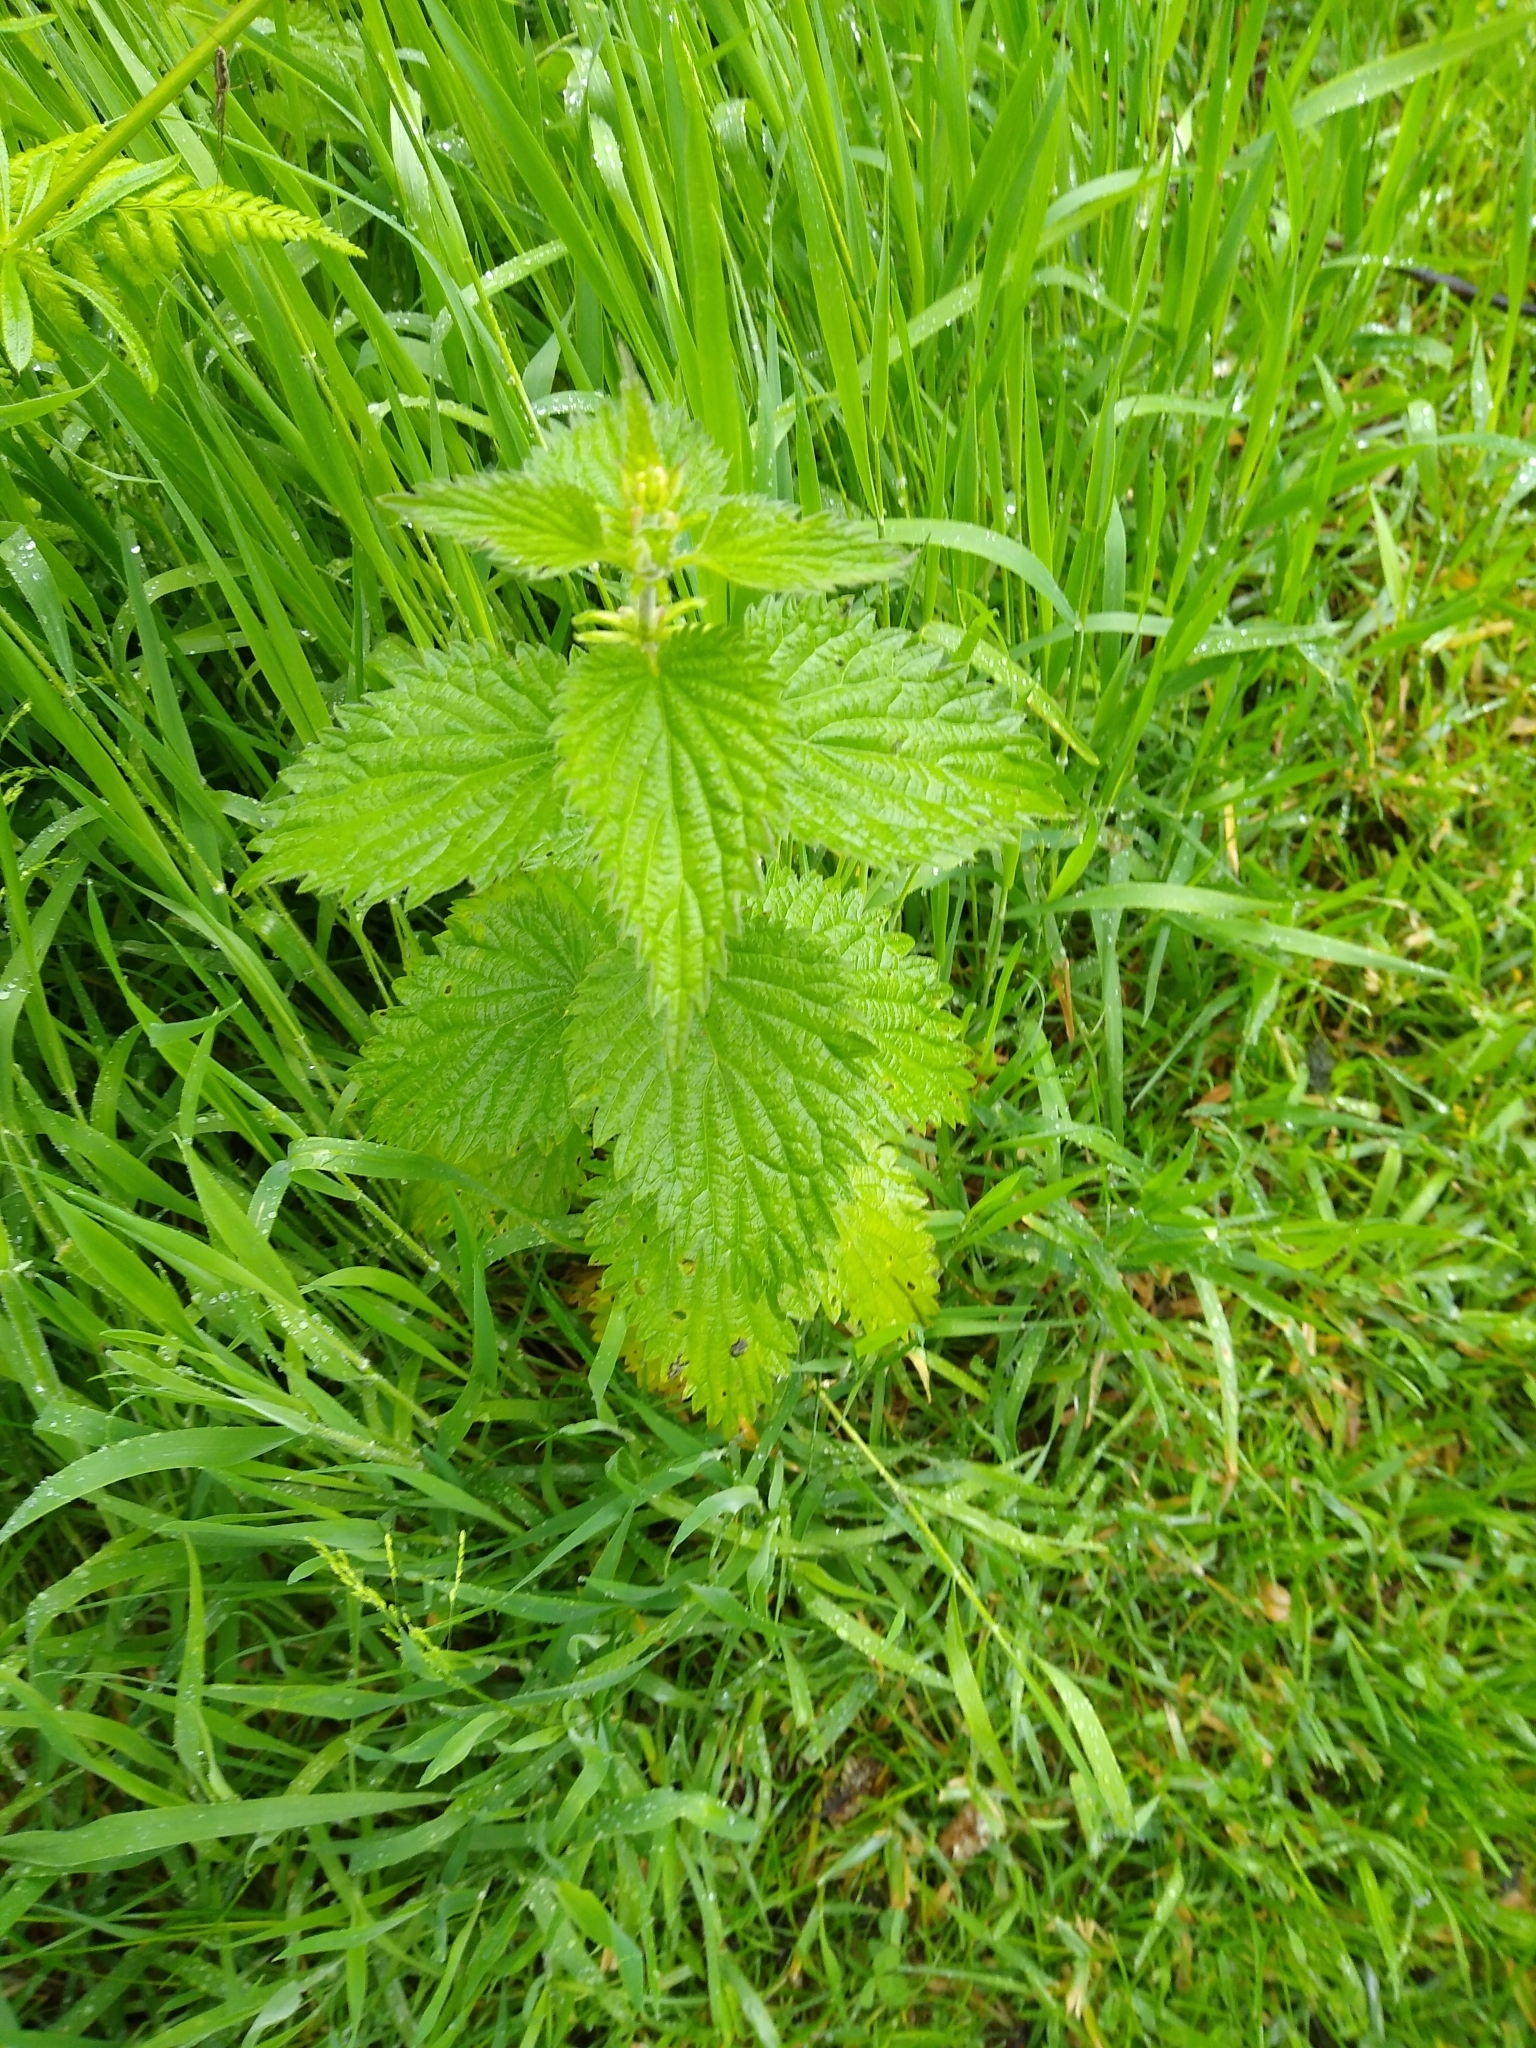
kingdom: Plantae
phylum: Tracheophyta
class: Magnoliopsida
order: Rosales
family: Urticaceae
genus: Urtica
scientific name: Urtica dioica
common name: Common nettle
